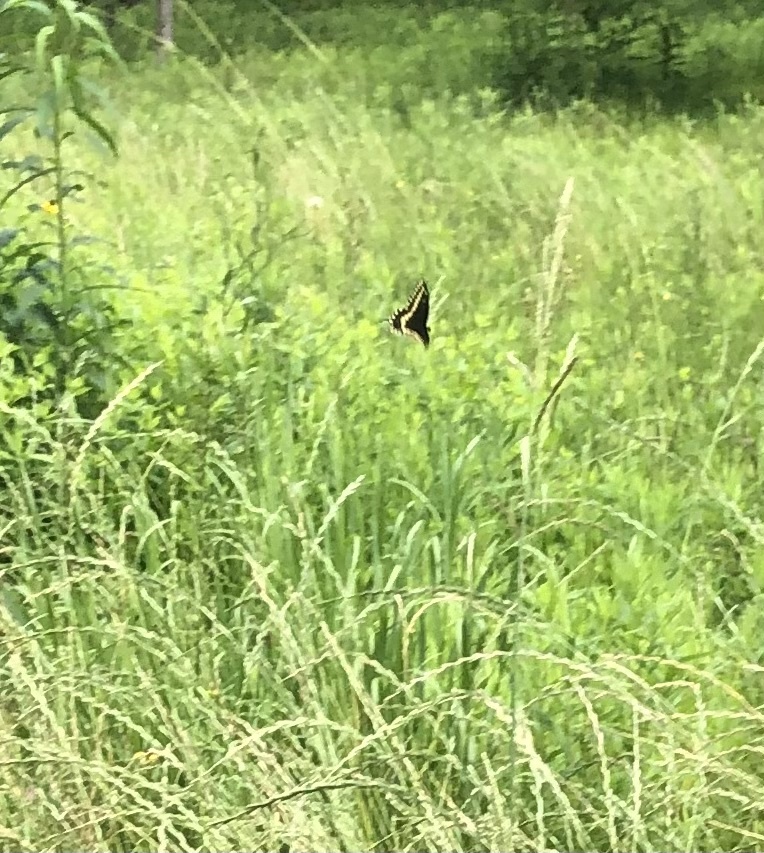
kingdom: Animalia
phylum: Arthropoda
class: Insecta
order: Lepidoptera
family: Papilionidae
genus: Papilio
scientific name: Papilio polyxenes
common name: Black swallowtail
